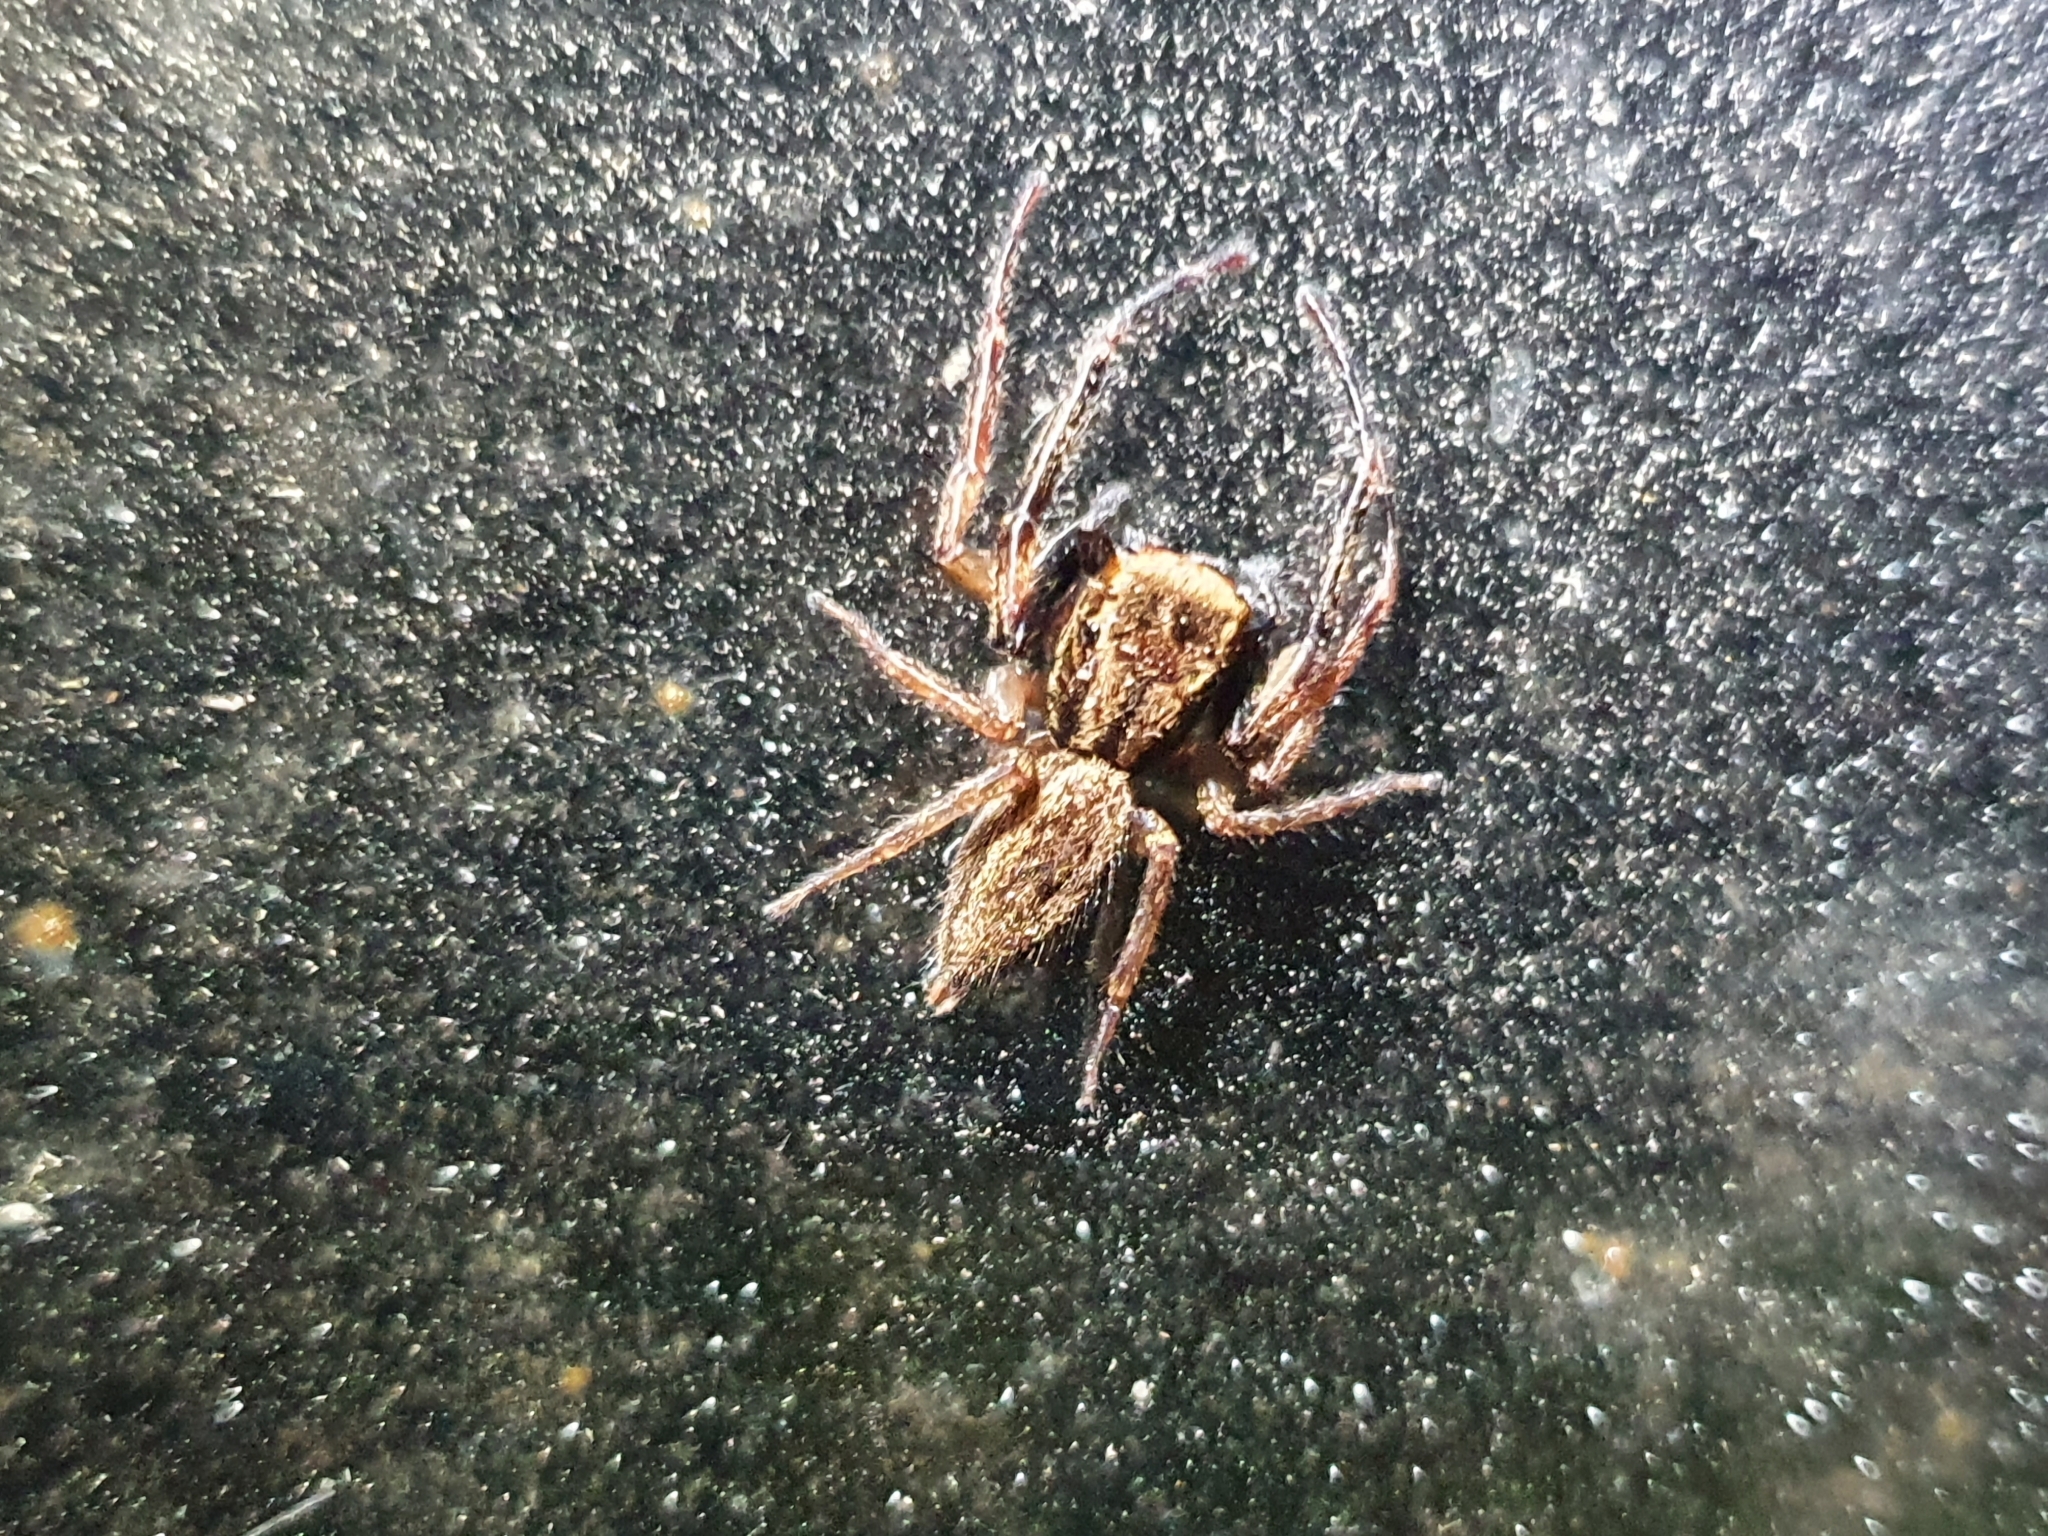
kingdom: Animalia
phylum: Arthropoda
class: Arachnida
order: Araneae
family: Salticidae
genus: Trite
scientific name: Trite auricoma
